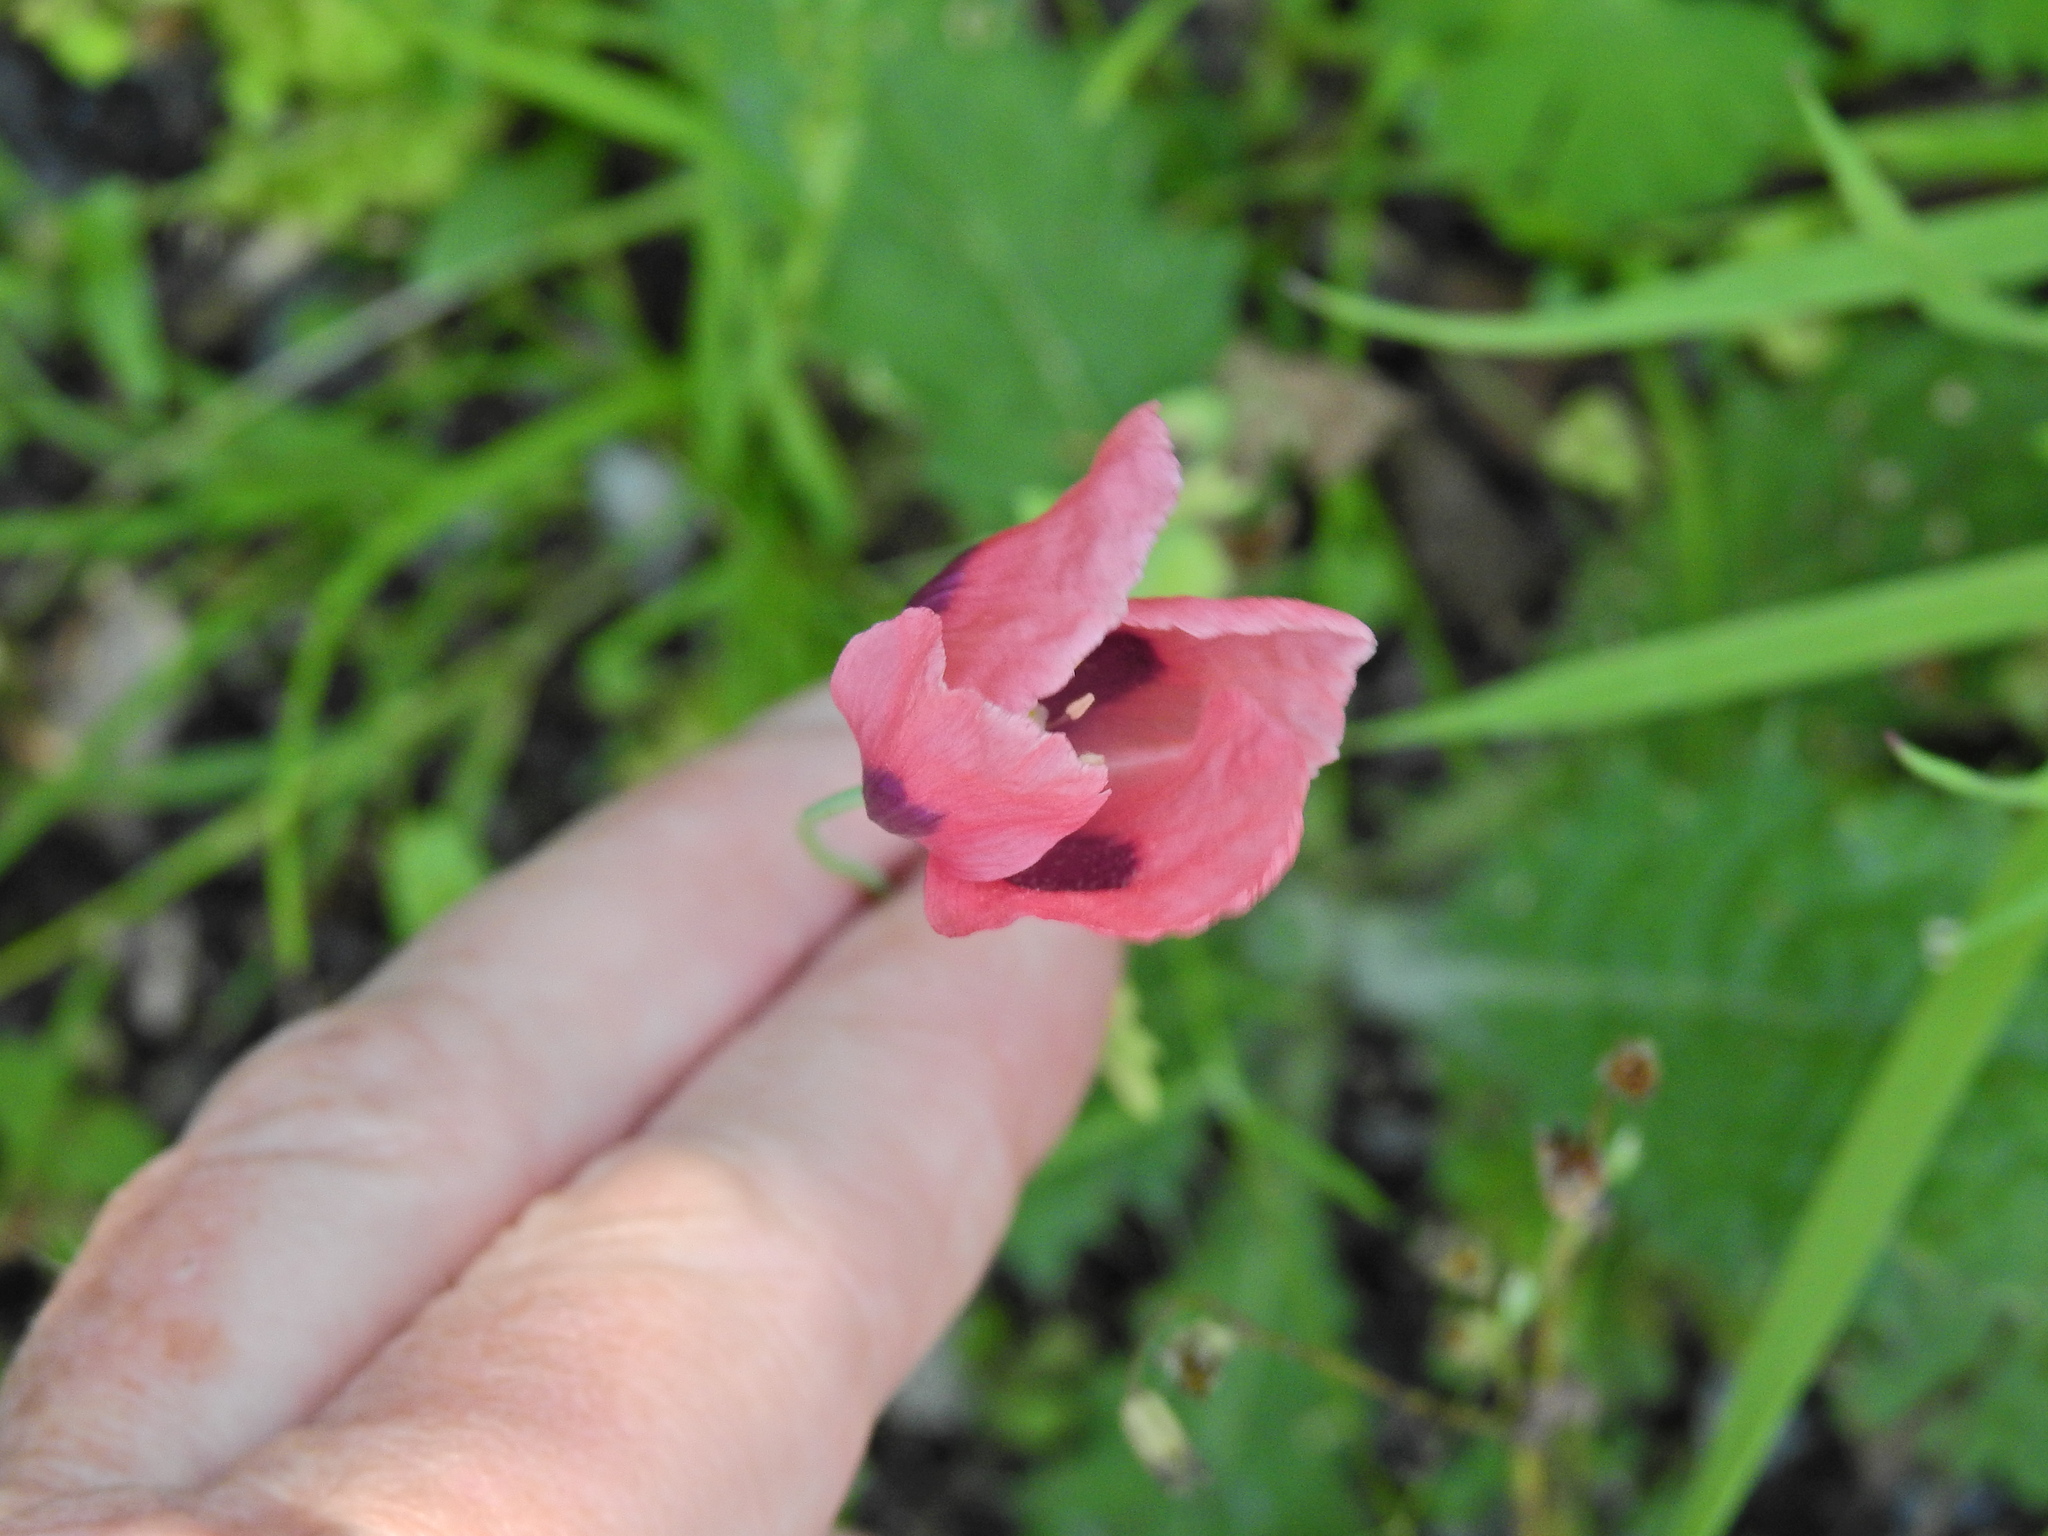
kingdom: Plantae
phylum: Tracheophyta
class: Magnoliopsida
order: Ranunculales
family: Papaveraceae
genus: Papaver
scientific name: Papaver somniferum
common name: Opium poppy
